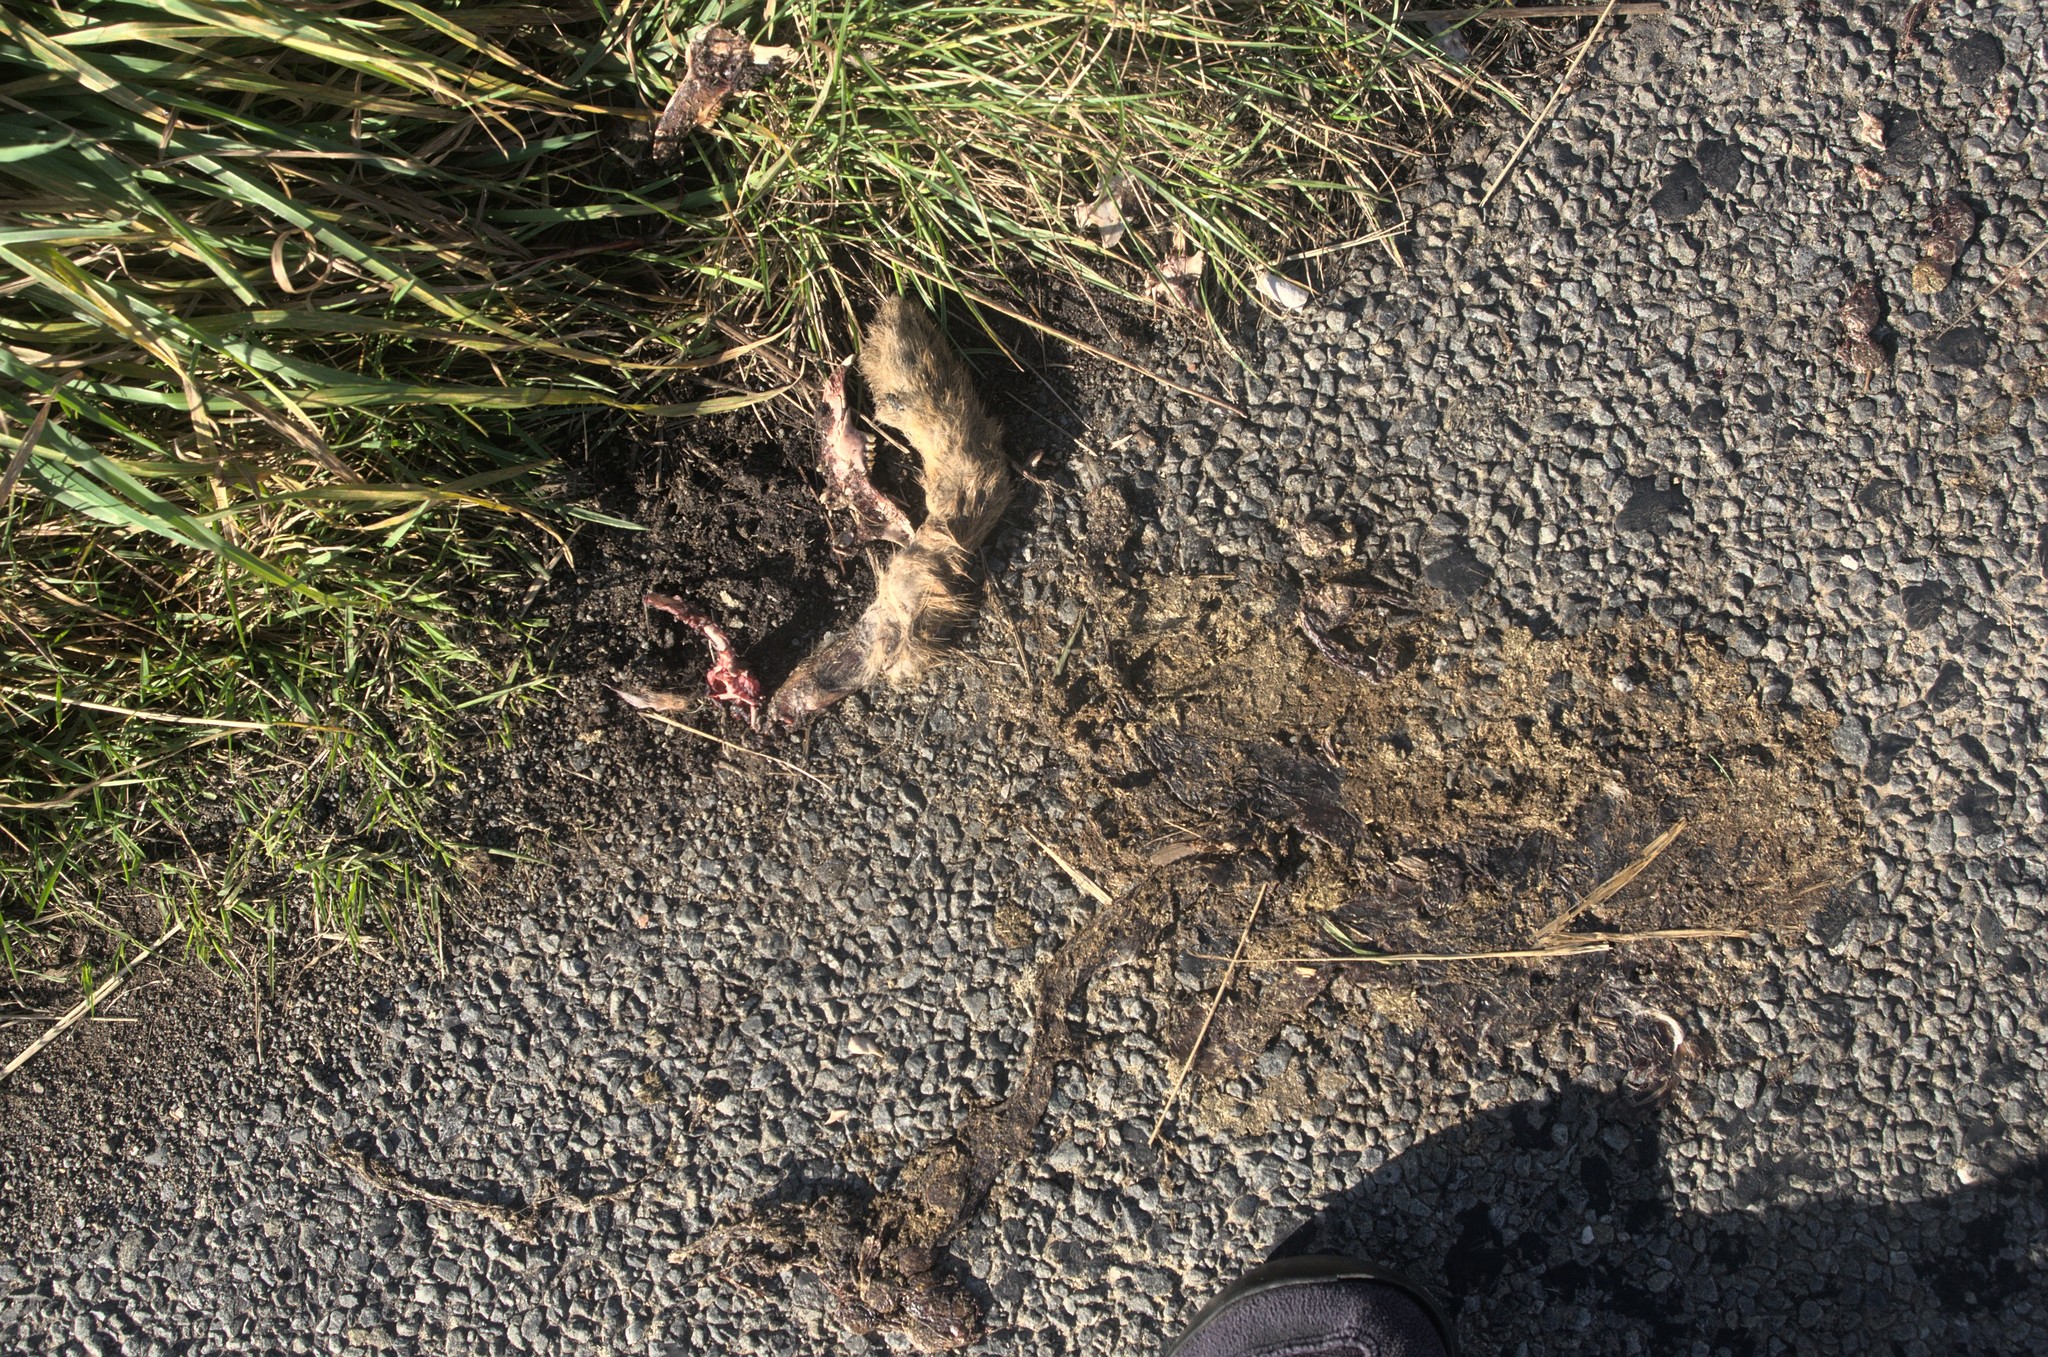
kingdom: Animalia
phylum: Chordata
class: Mammalia
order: Lagomorpha
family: Leporidae
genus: Lepus
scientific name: Lepus europaeus
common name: European hare
